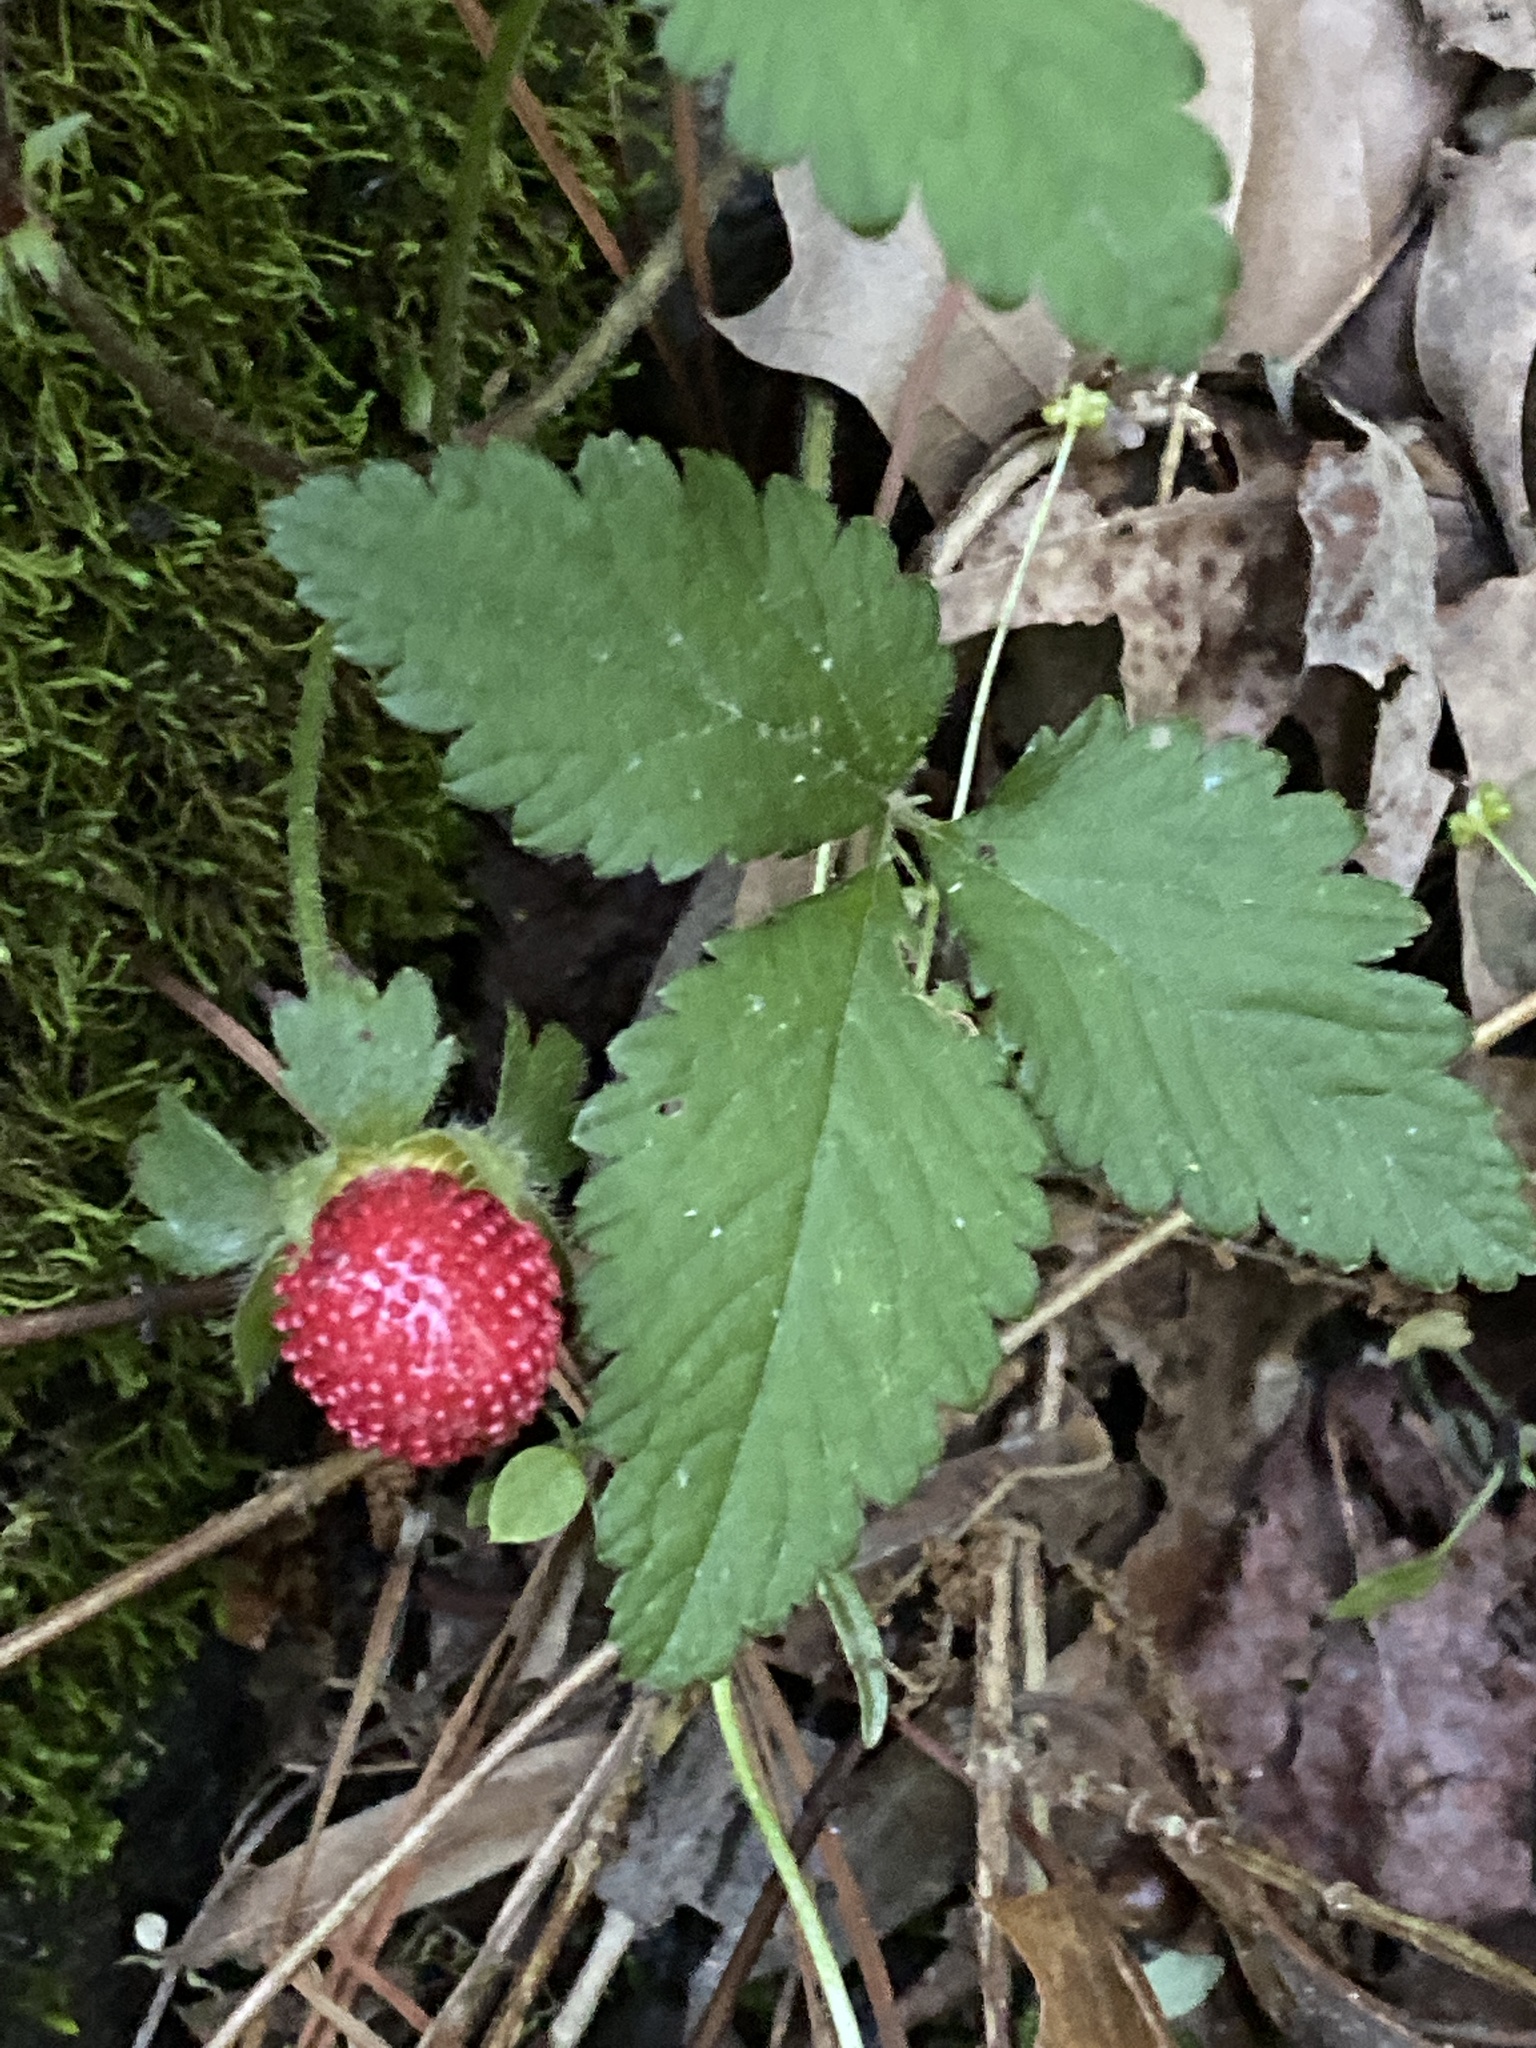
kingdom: Plantae
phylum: Tracheophyta
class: Magnoliopsida
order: Rosales
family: Rosaceae
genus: Potentilla
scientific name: Potentilla indica
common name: Yellow-flowered strawberry
